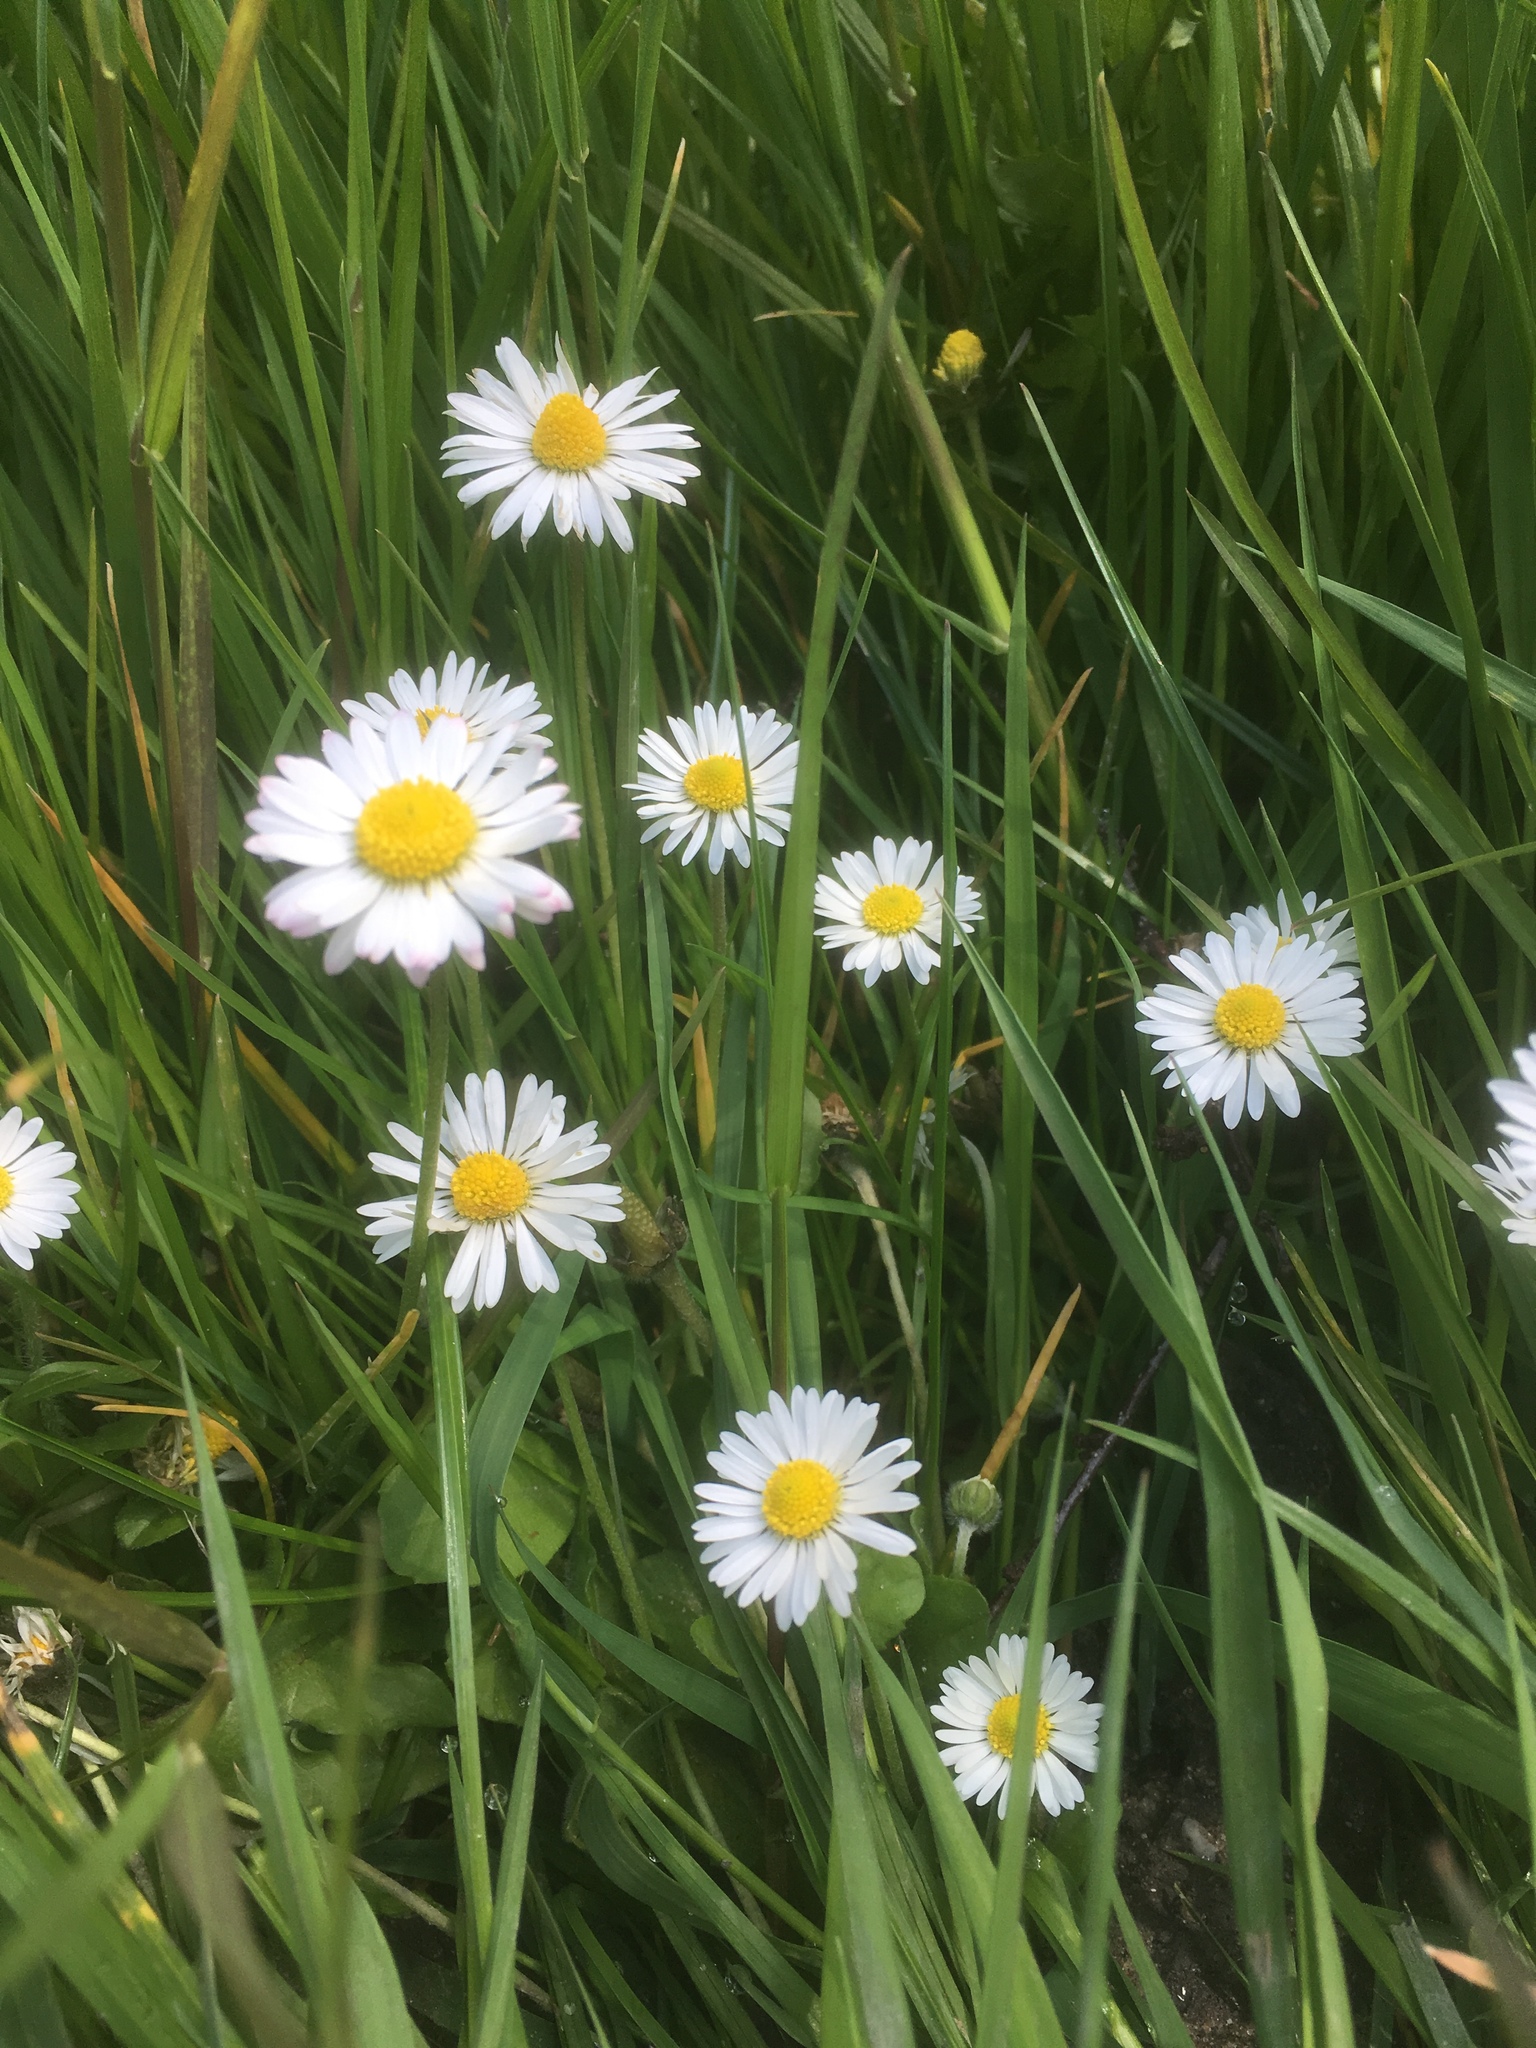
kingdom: Plantae
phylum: Tracheophyta
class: Magnoliopsida
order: Asterales
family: Asteraceae
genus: Bellis
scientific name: Bellis perennis
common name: Lawndaisy
